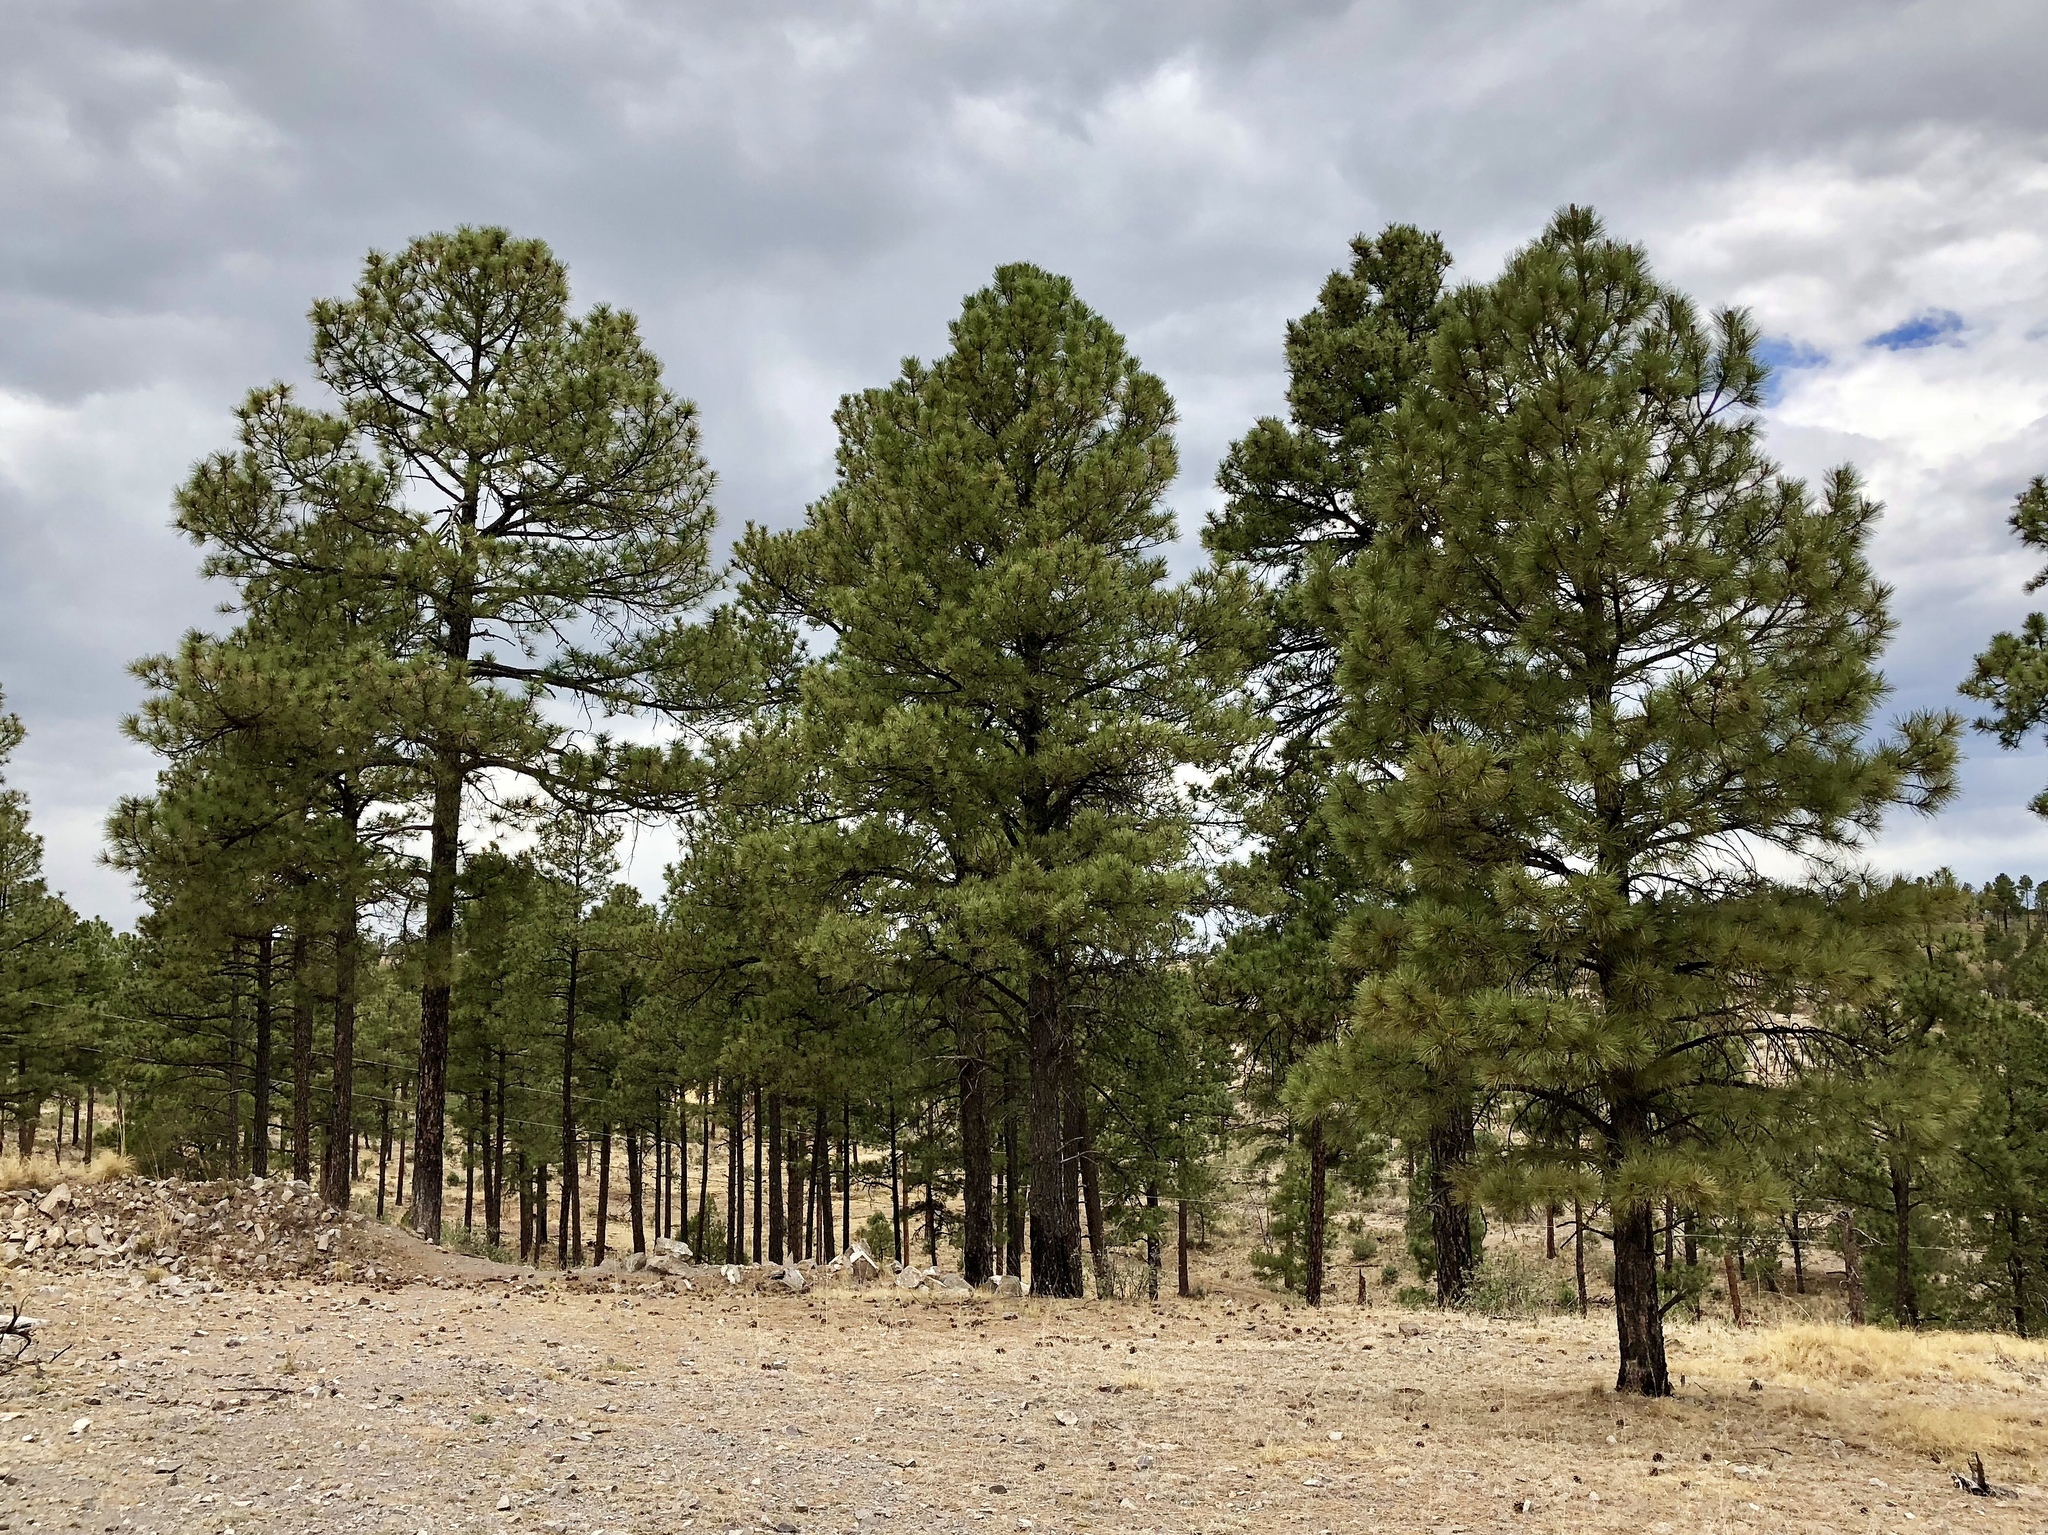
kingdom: Plantae
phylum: Tracheophyta
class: Pinopsida
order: Pinales
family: Pinaceae
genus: Pinus
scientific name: Pinus ponderosa
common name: Western yellow-pine
